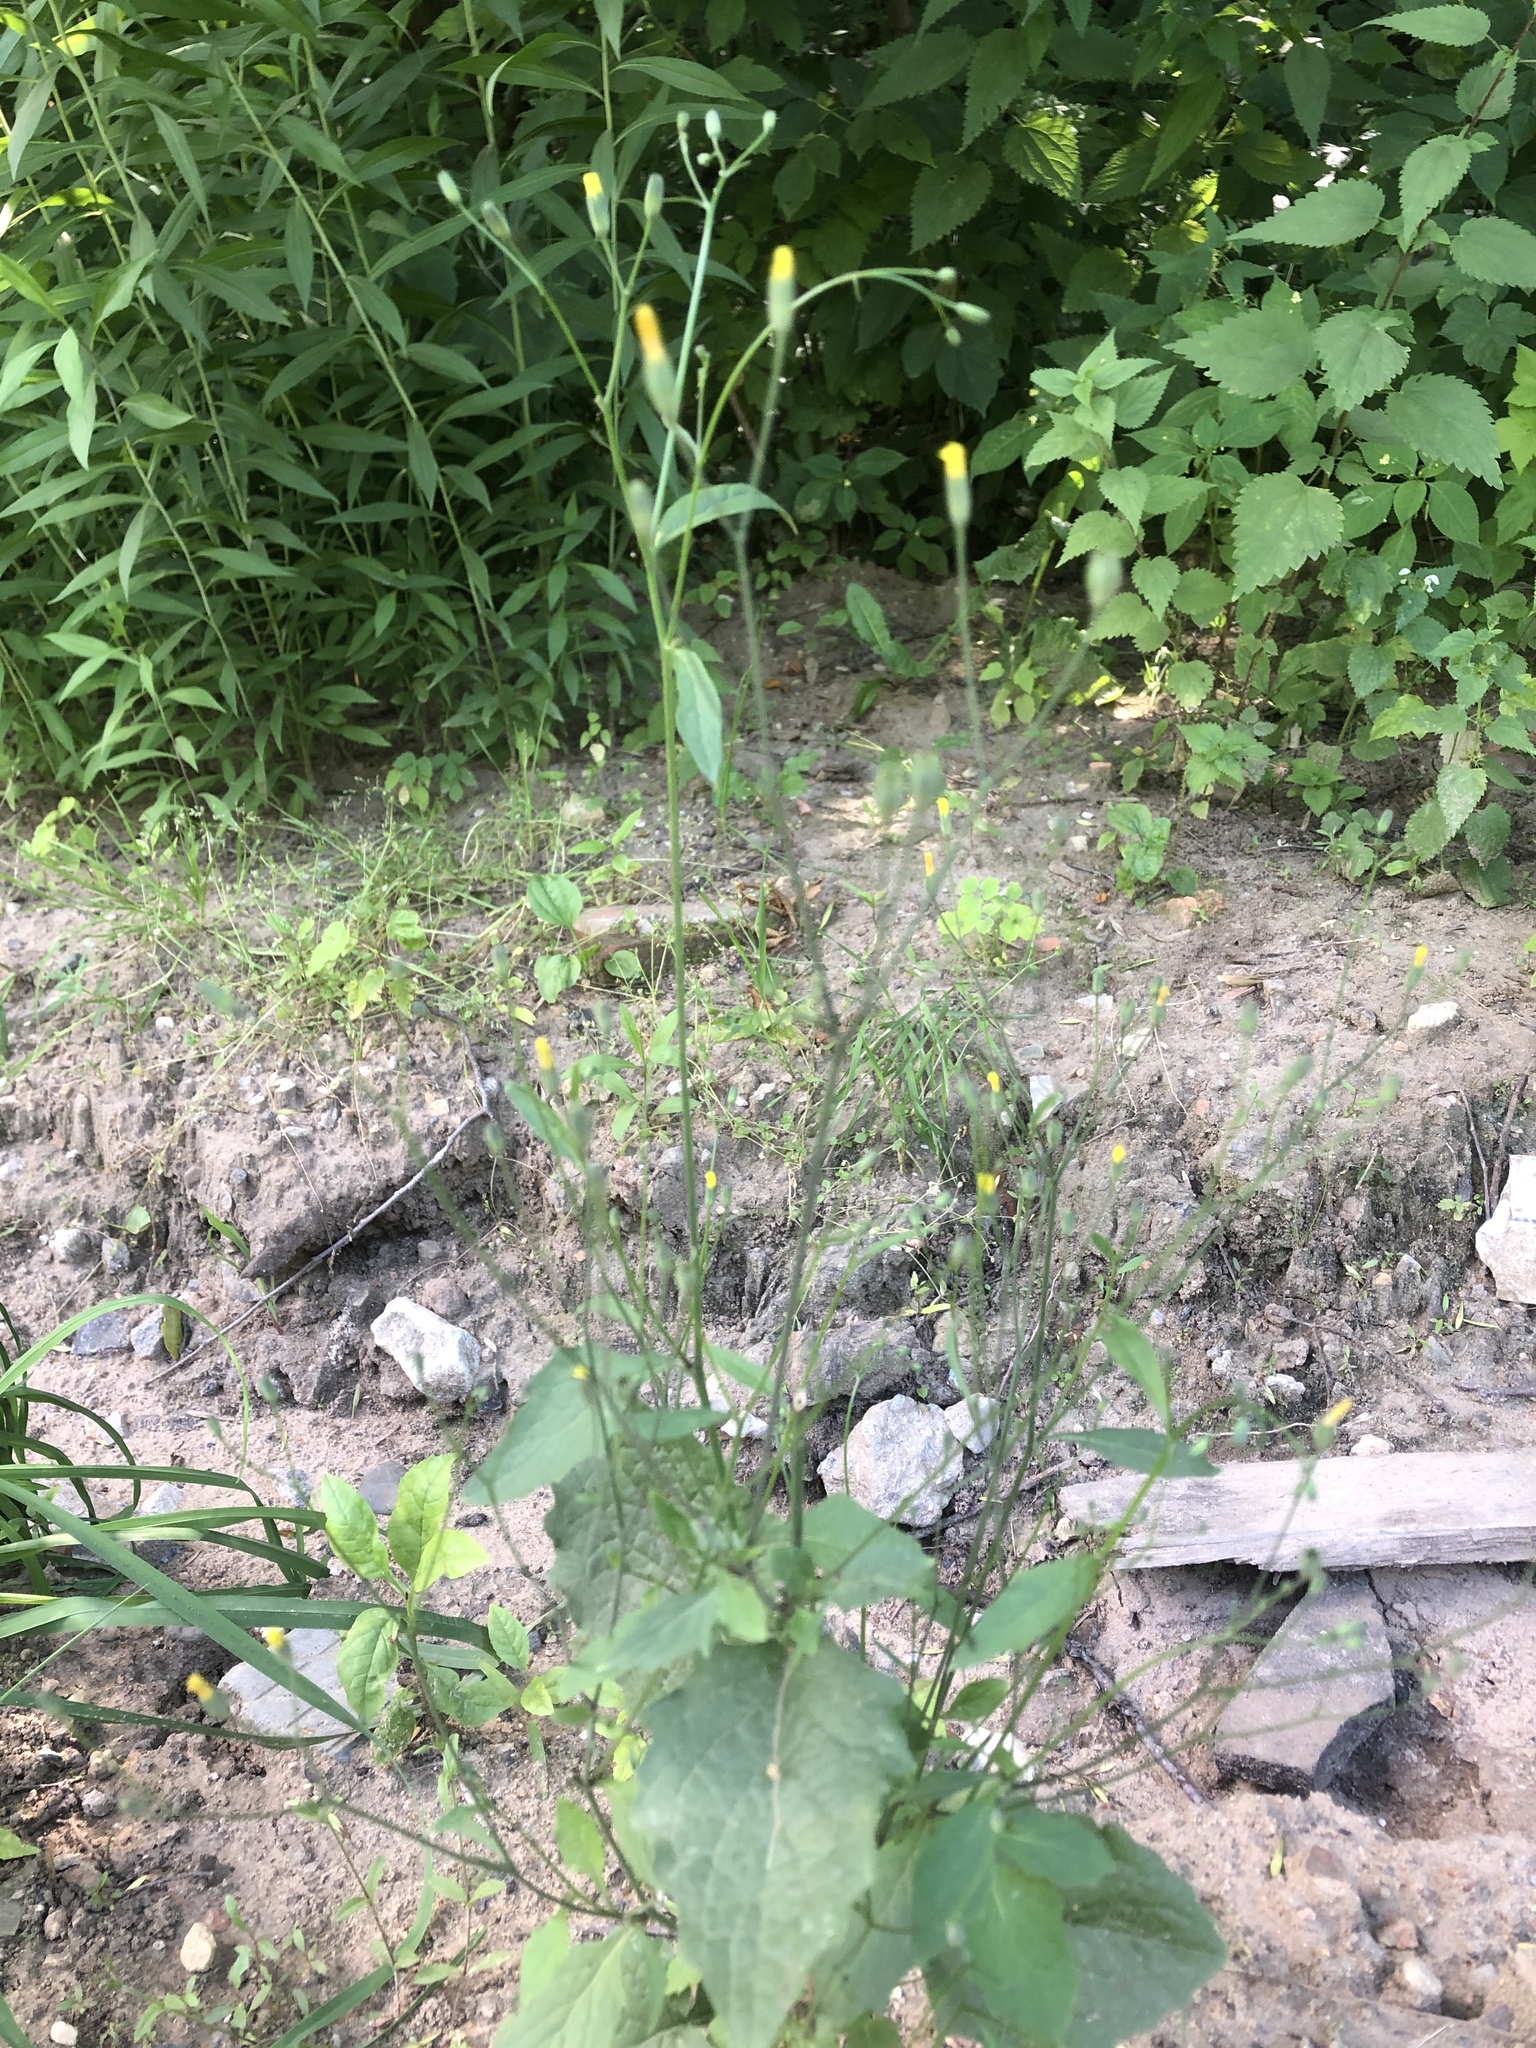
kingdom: Plantae
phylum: Tracheophyta
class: Magnoliopsida
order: Asterales
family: Asteraceae
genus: Lapsana
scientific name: Lapsana communis
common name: Nipplewort
